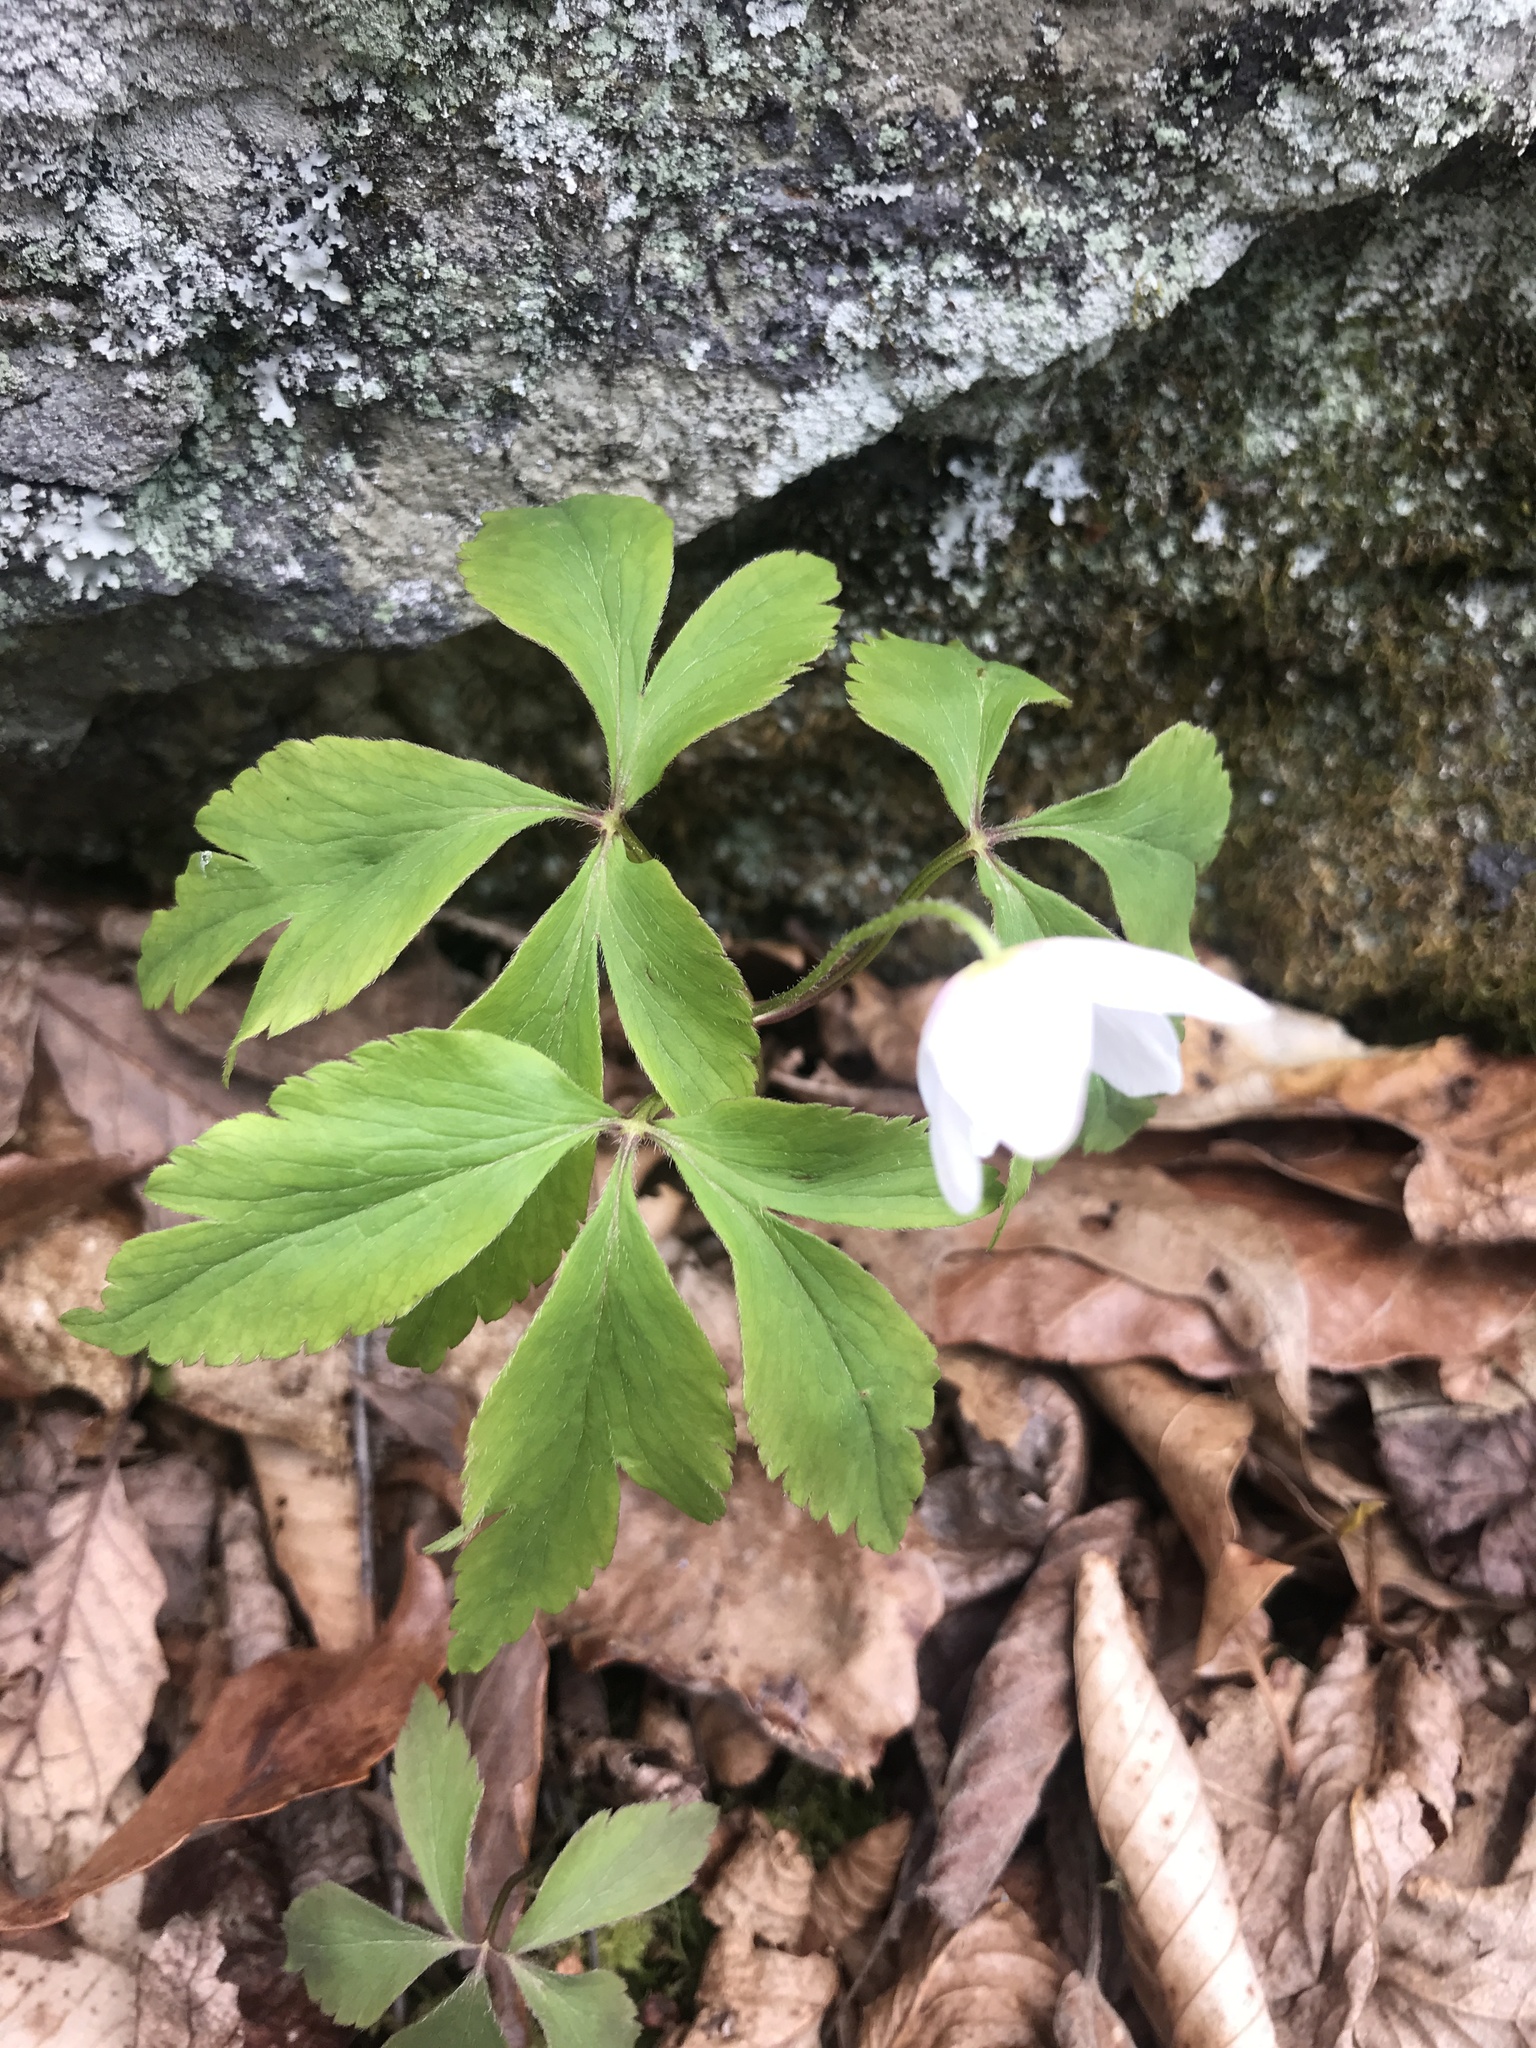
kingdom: Plantae
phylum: Tracheophyta
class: Magnoliopsida
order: Ranunculales
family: Ranunculaceae
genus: Anemone
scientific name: Anemone quinquefolia
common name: Wood anemone
